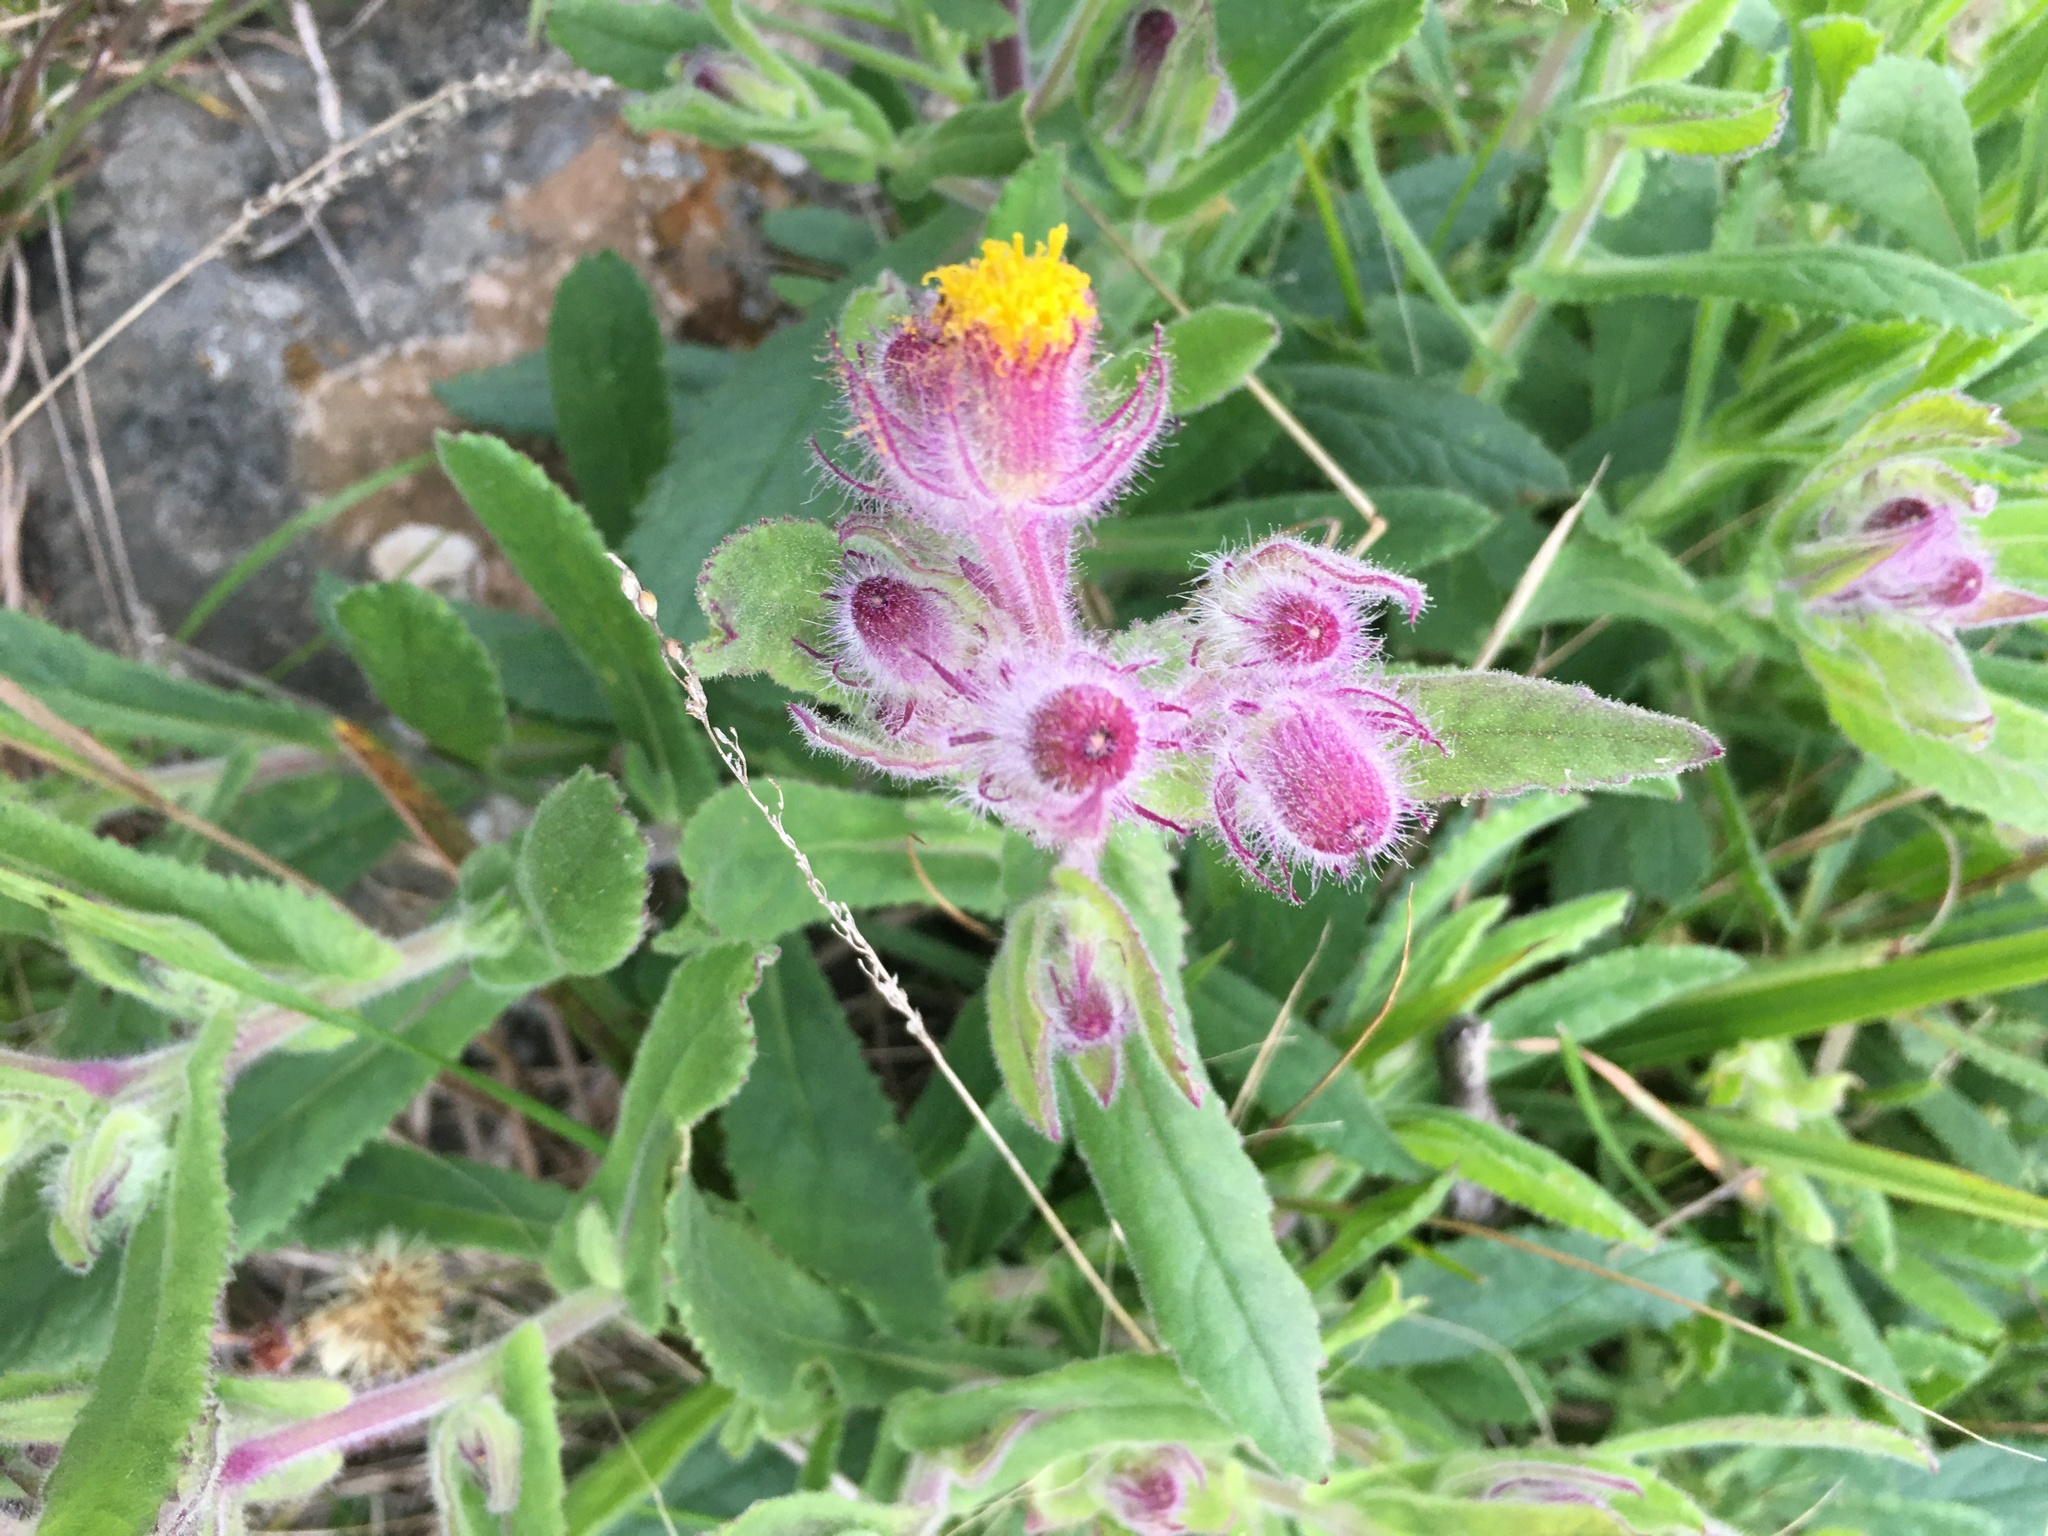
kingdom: Plantae
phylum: Tracheophyta
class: Magnoliopsida
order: Asterales
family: Asteraceae
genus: Senecio
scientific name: Senecio conyzifolius
